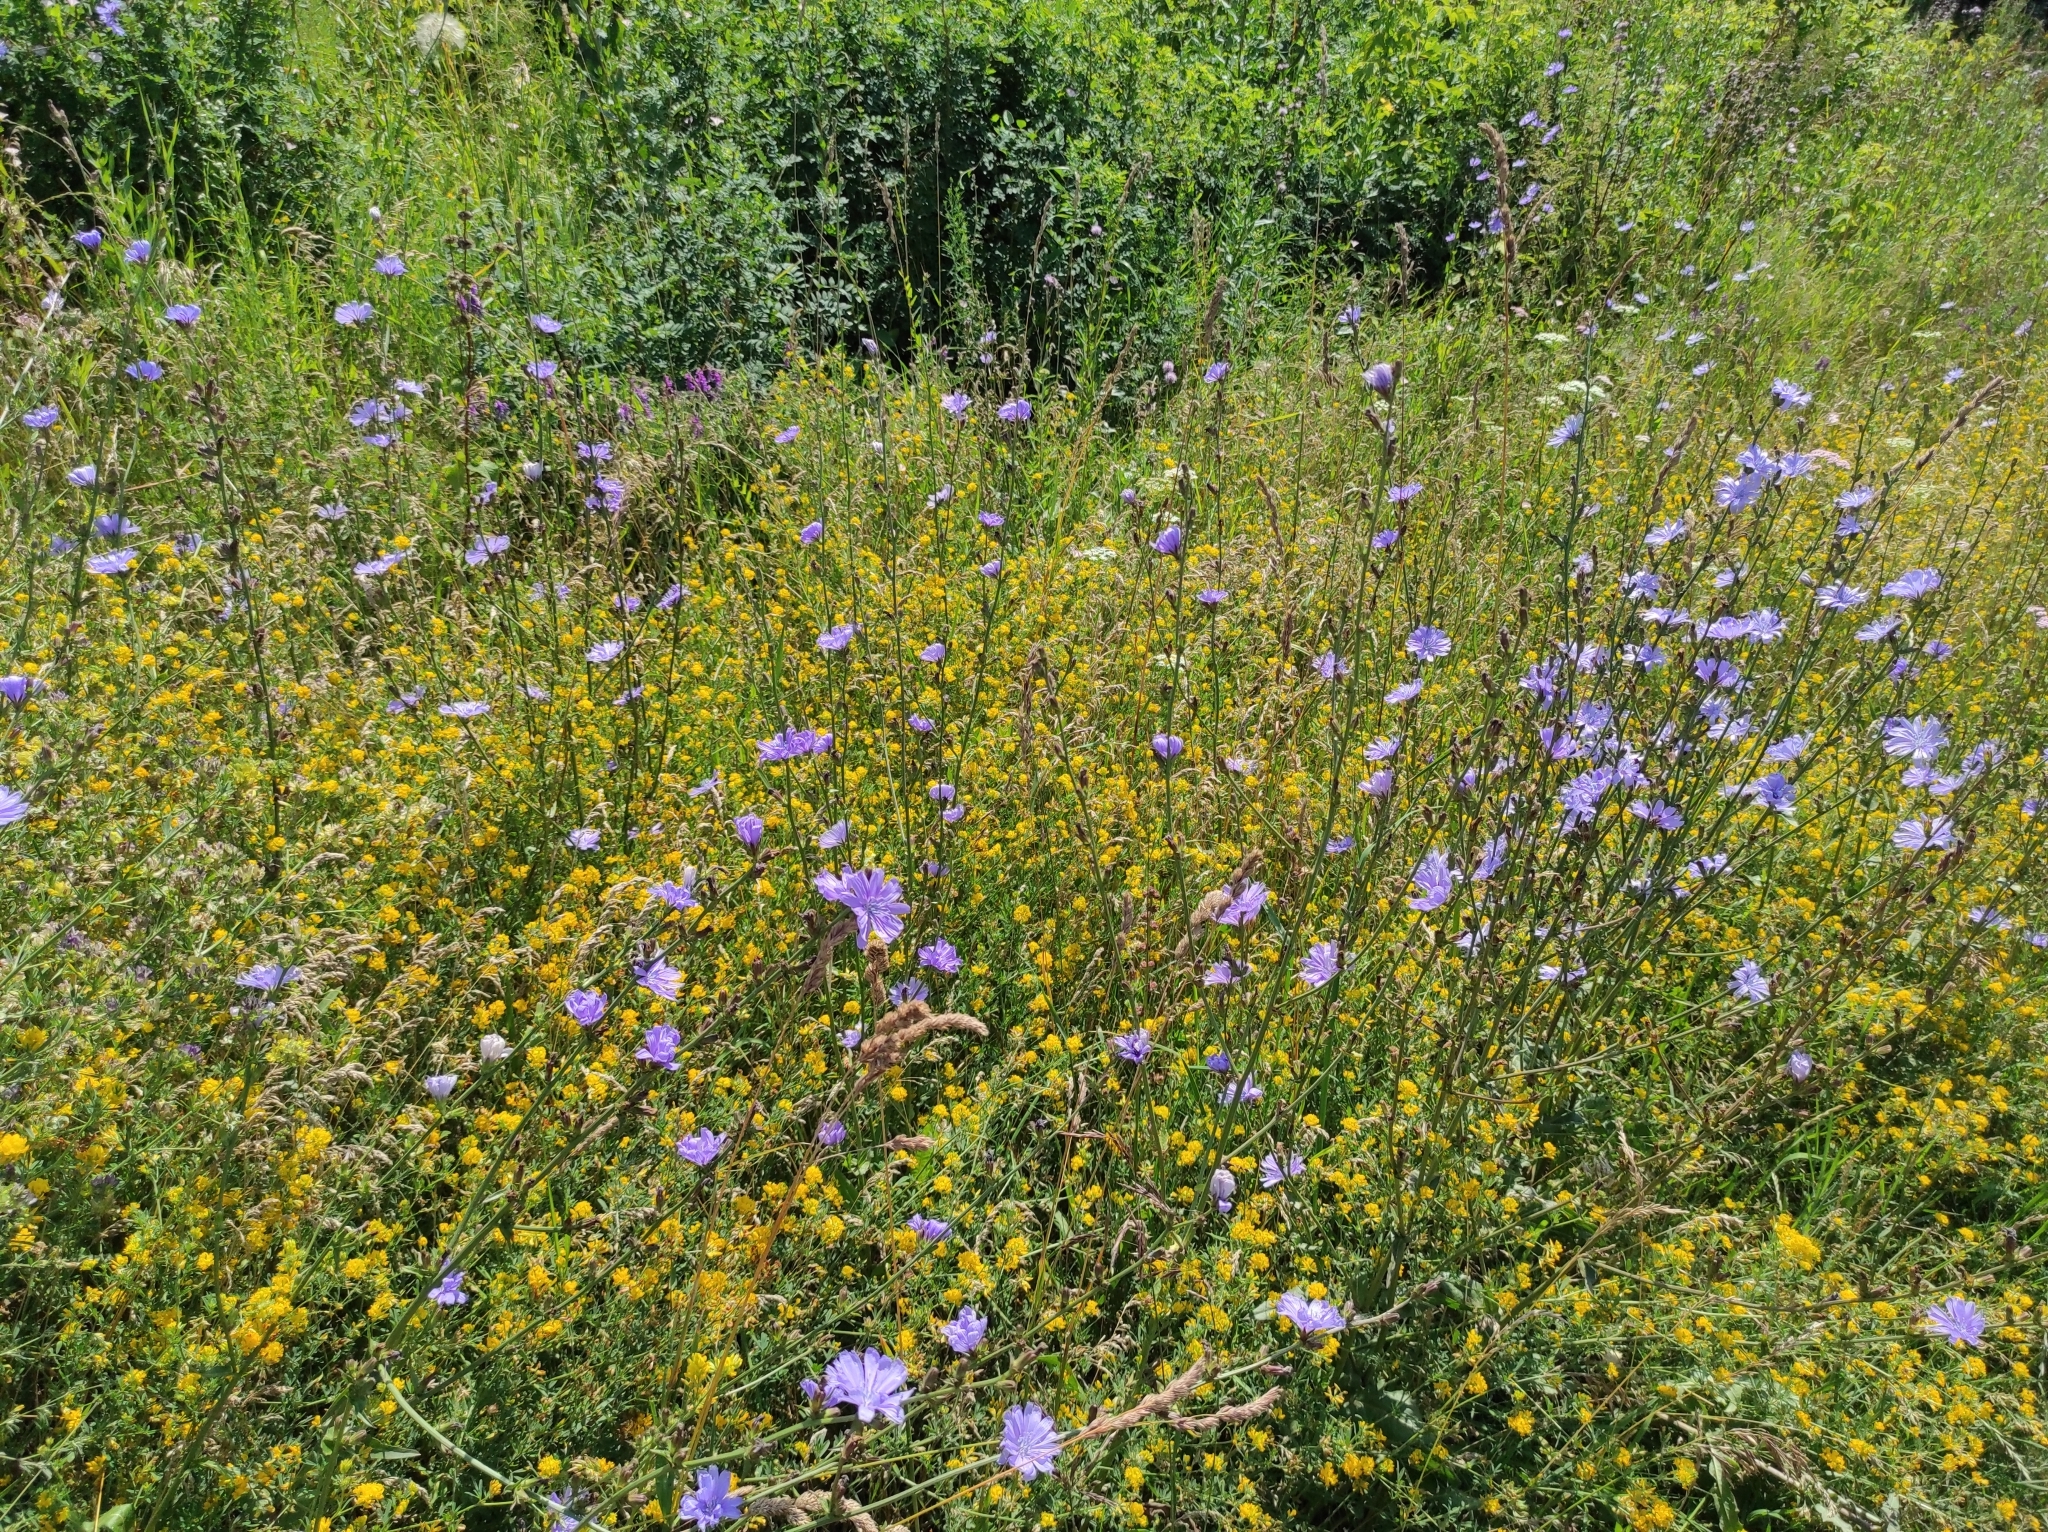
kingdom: Plantae
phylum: Tracheophyta
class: Magnoliopsida
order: Fabales
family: Fabaceae
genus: Medicago
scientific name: Medicago falcata
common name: Sickle medick
